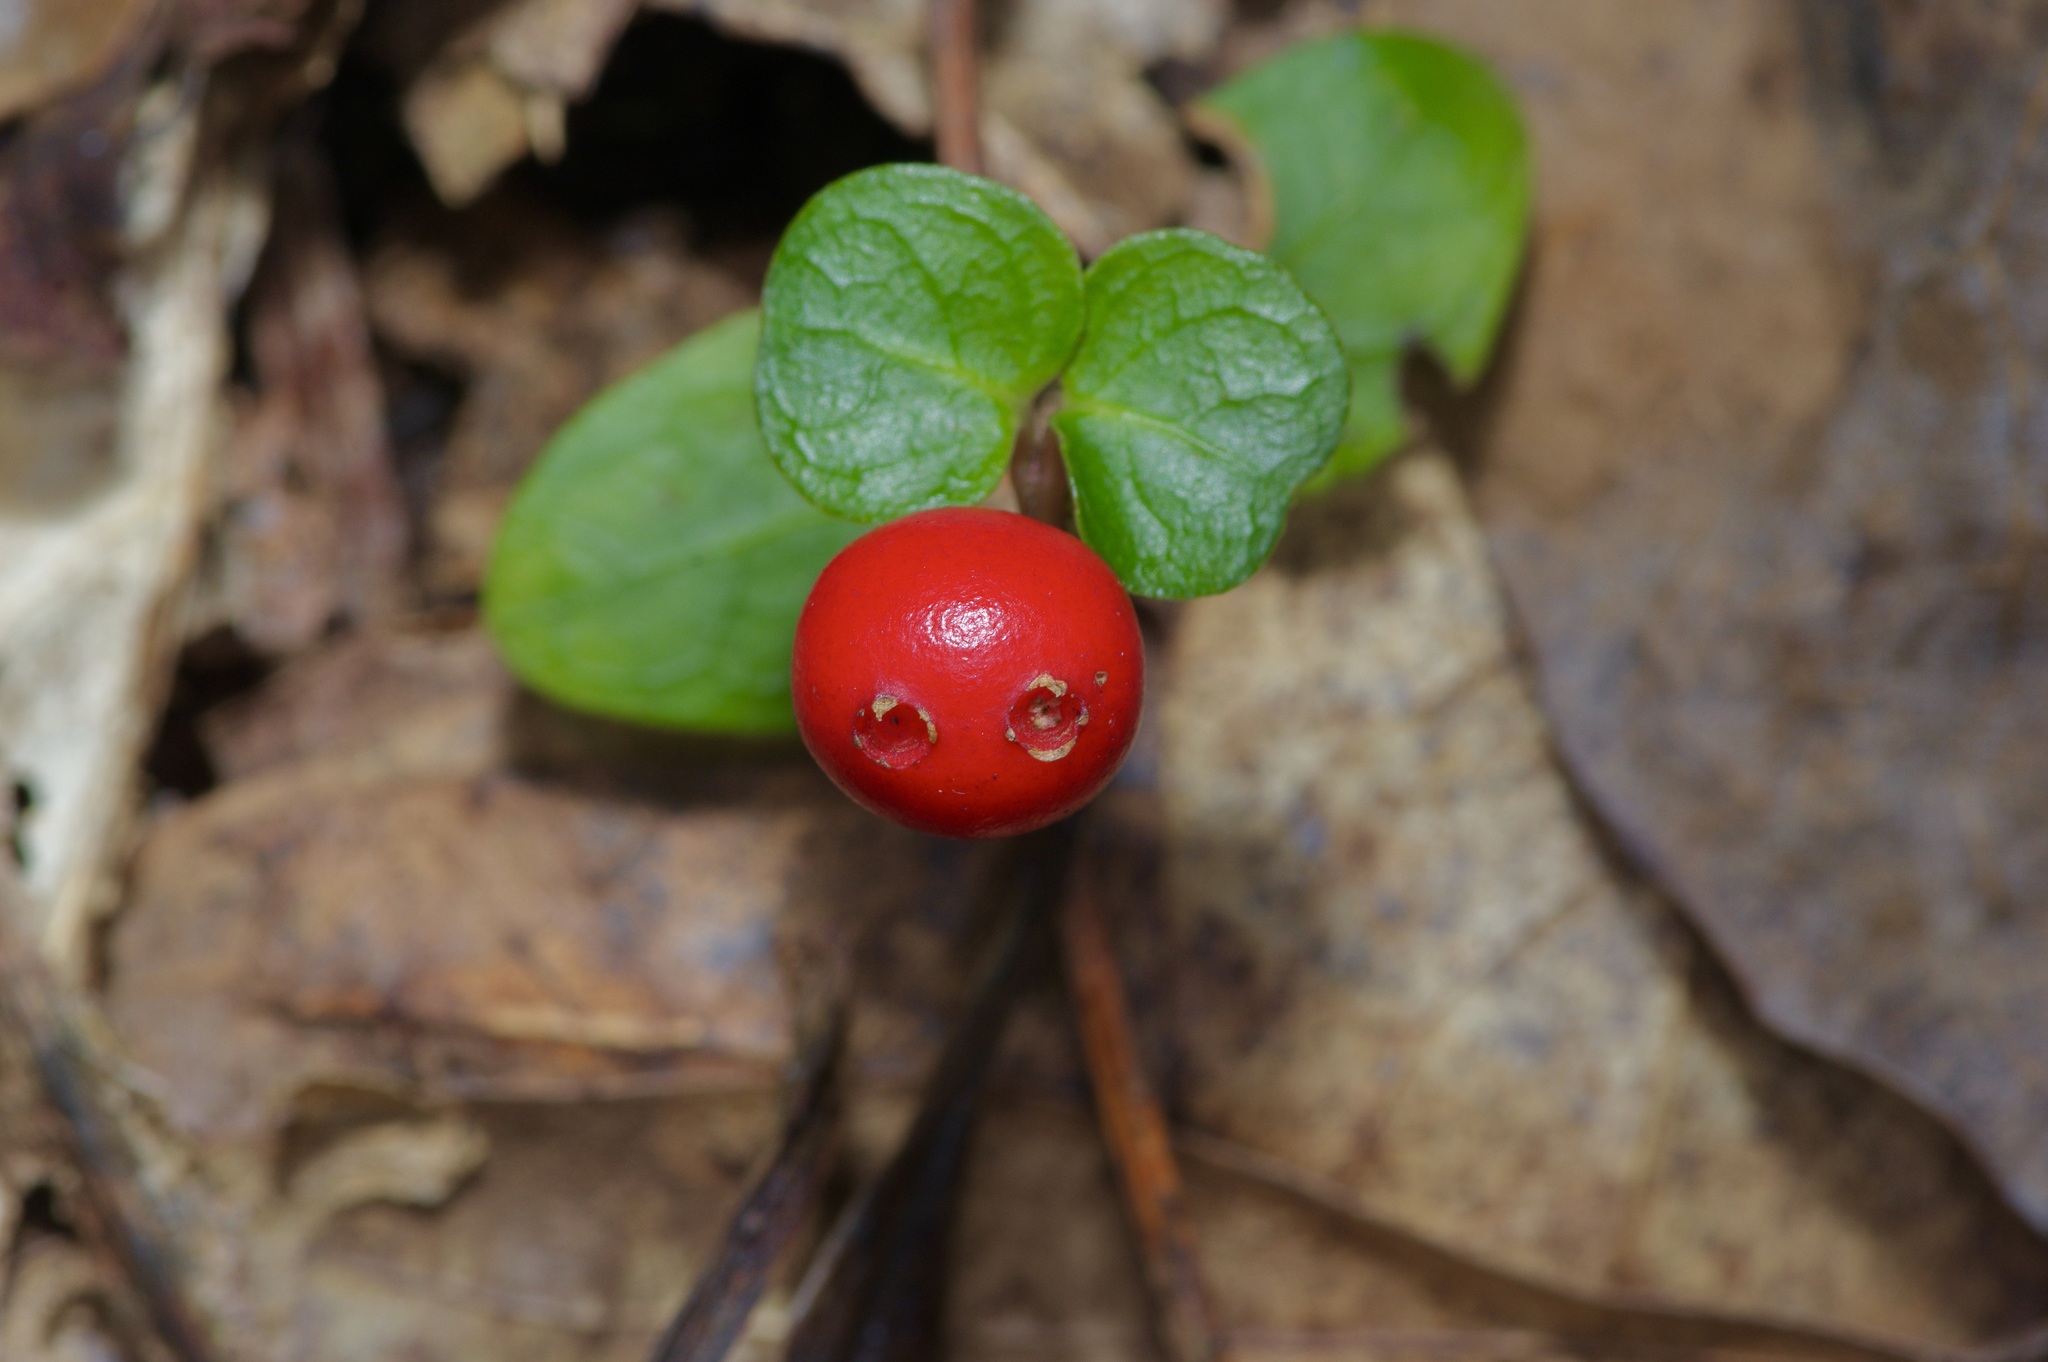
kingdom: Plantae
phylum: Tracheophyta
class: Magnoliopsida
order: Gentianales
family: Rubiaceae
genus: Mitchella
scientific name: Mitchella repens
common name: Partridge-berry
